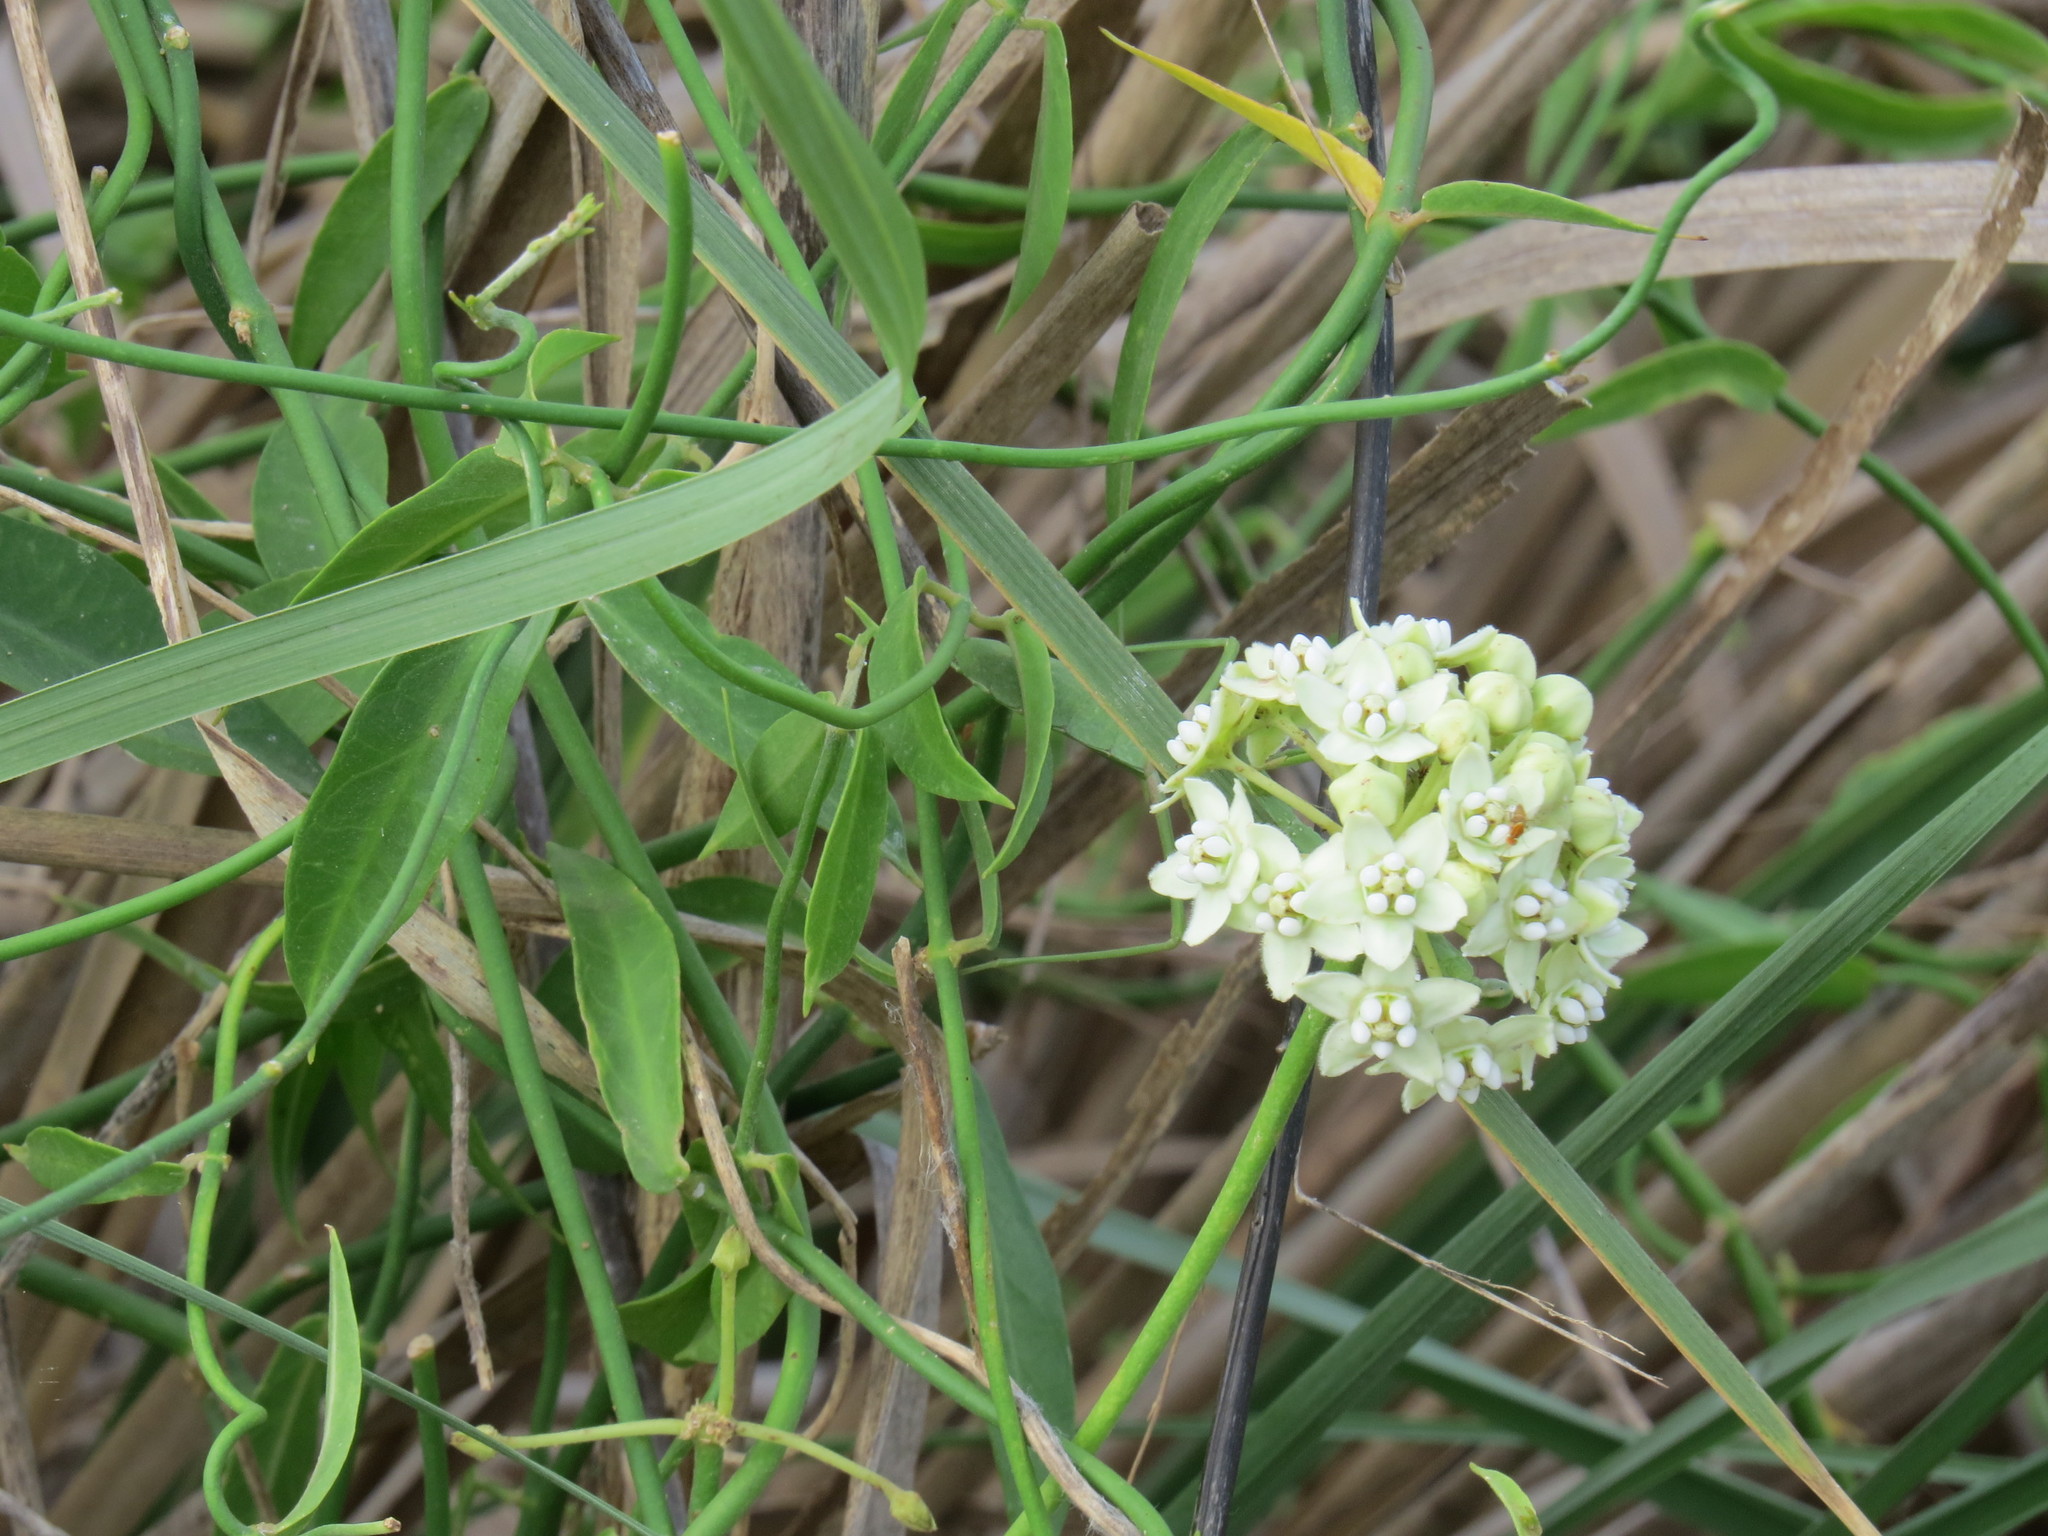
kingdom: Plantae
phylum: Tracheophyta
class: Magnoliopsida
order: Gentianales
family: Apocynaceae
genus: Funastrum
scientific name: Funastrum clausum
